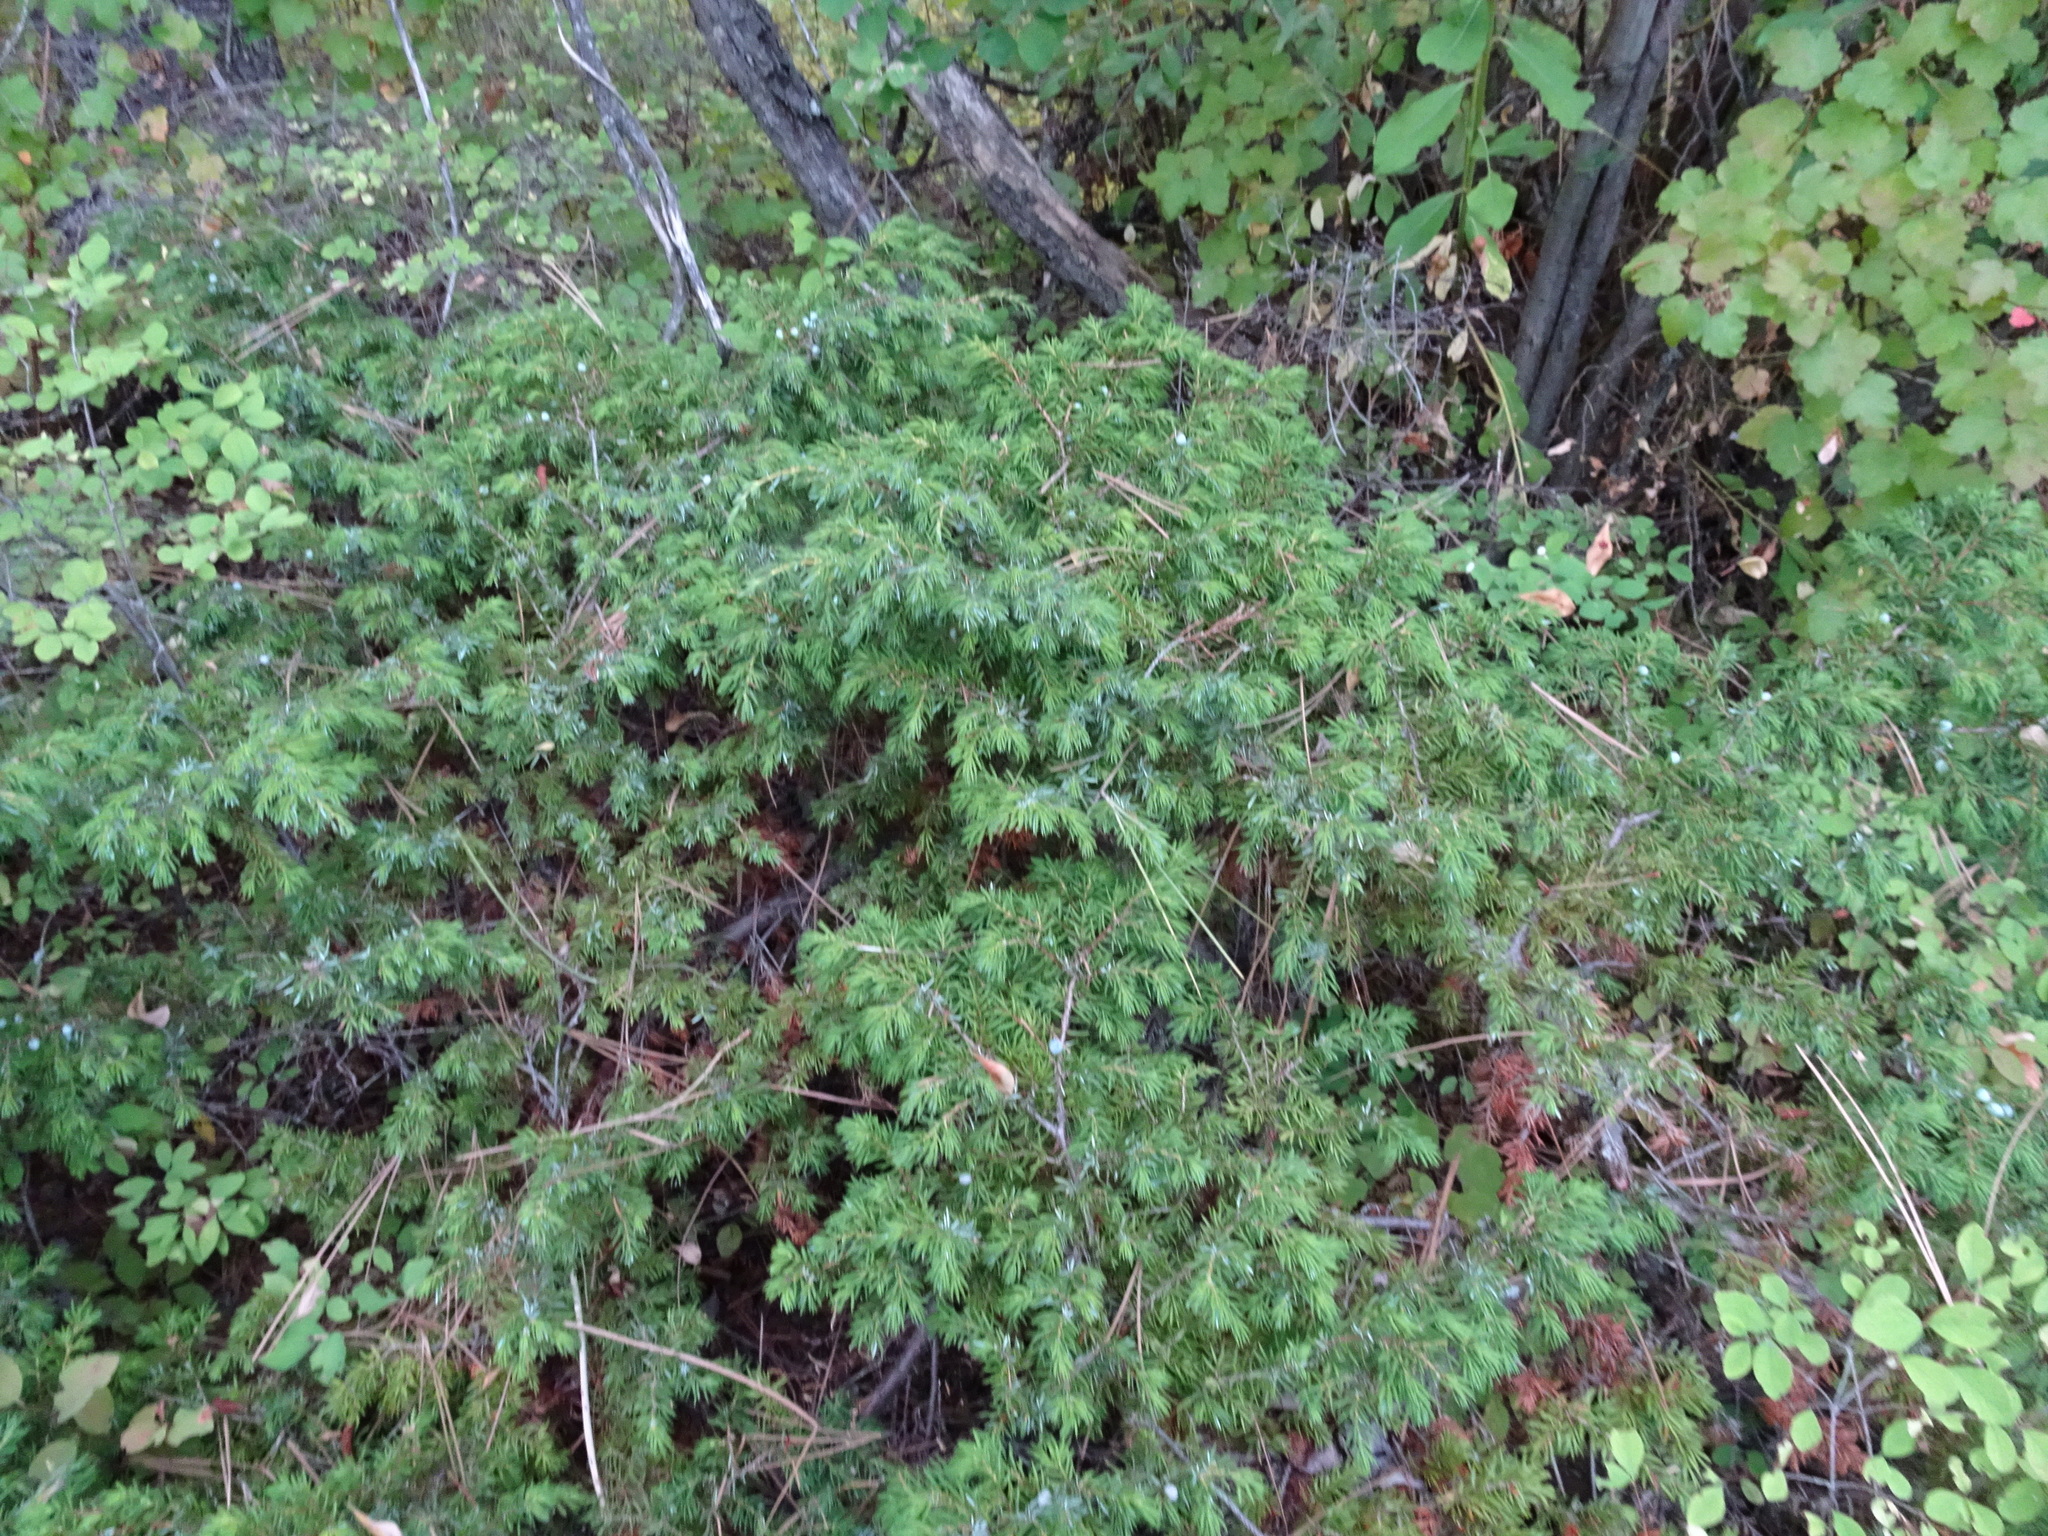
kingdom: Plantae
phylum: Tracheophyta
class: Pinopsida
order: Pinales
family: Cupressaceae
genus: Juniperus
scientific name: Juniperus communis
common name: Common juniper
